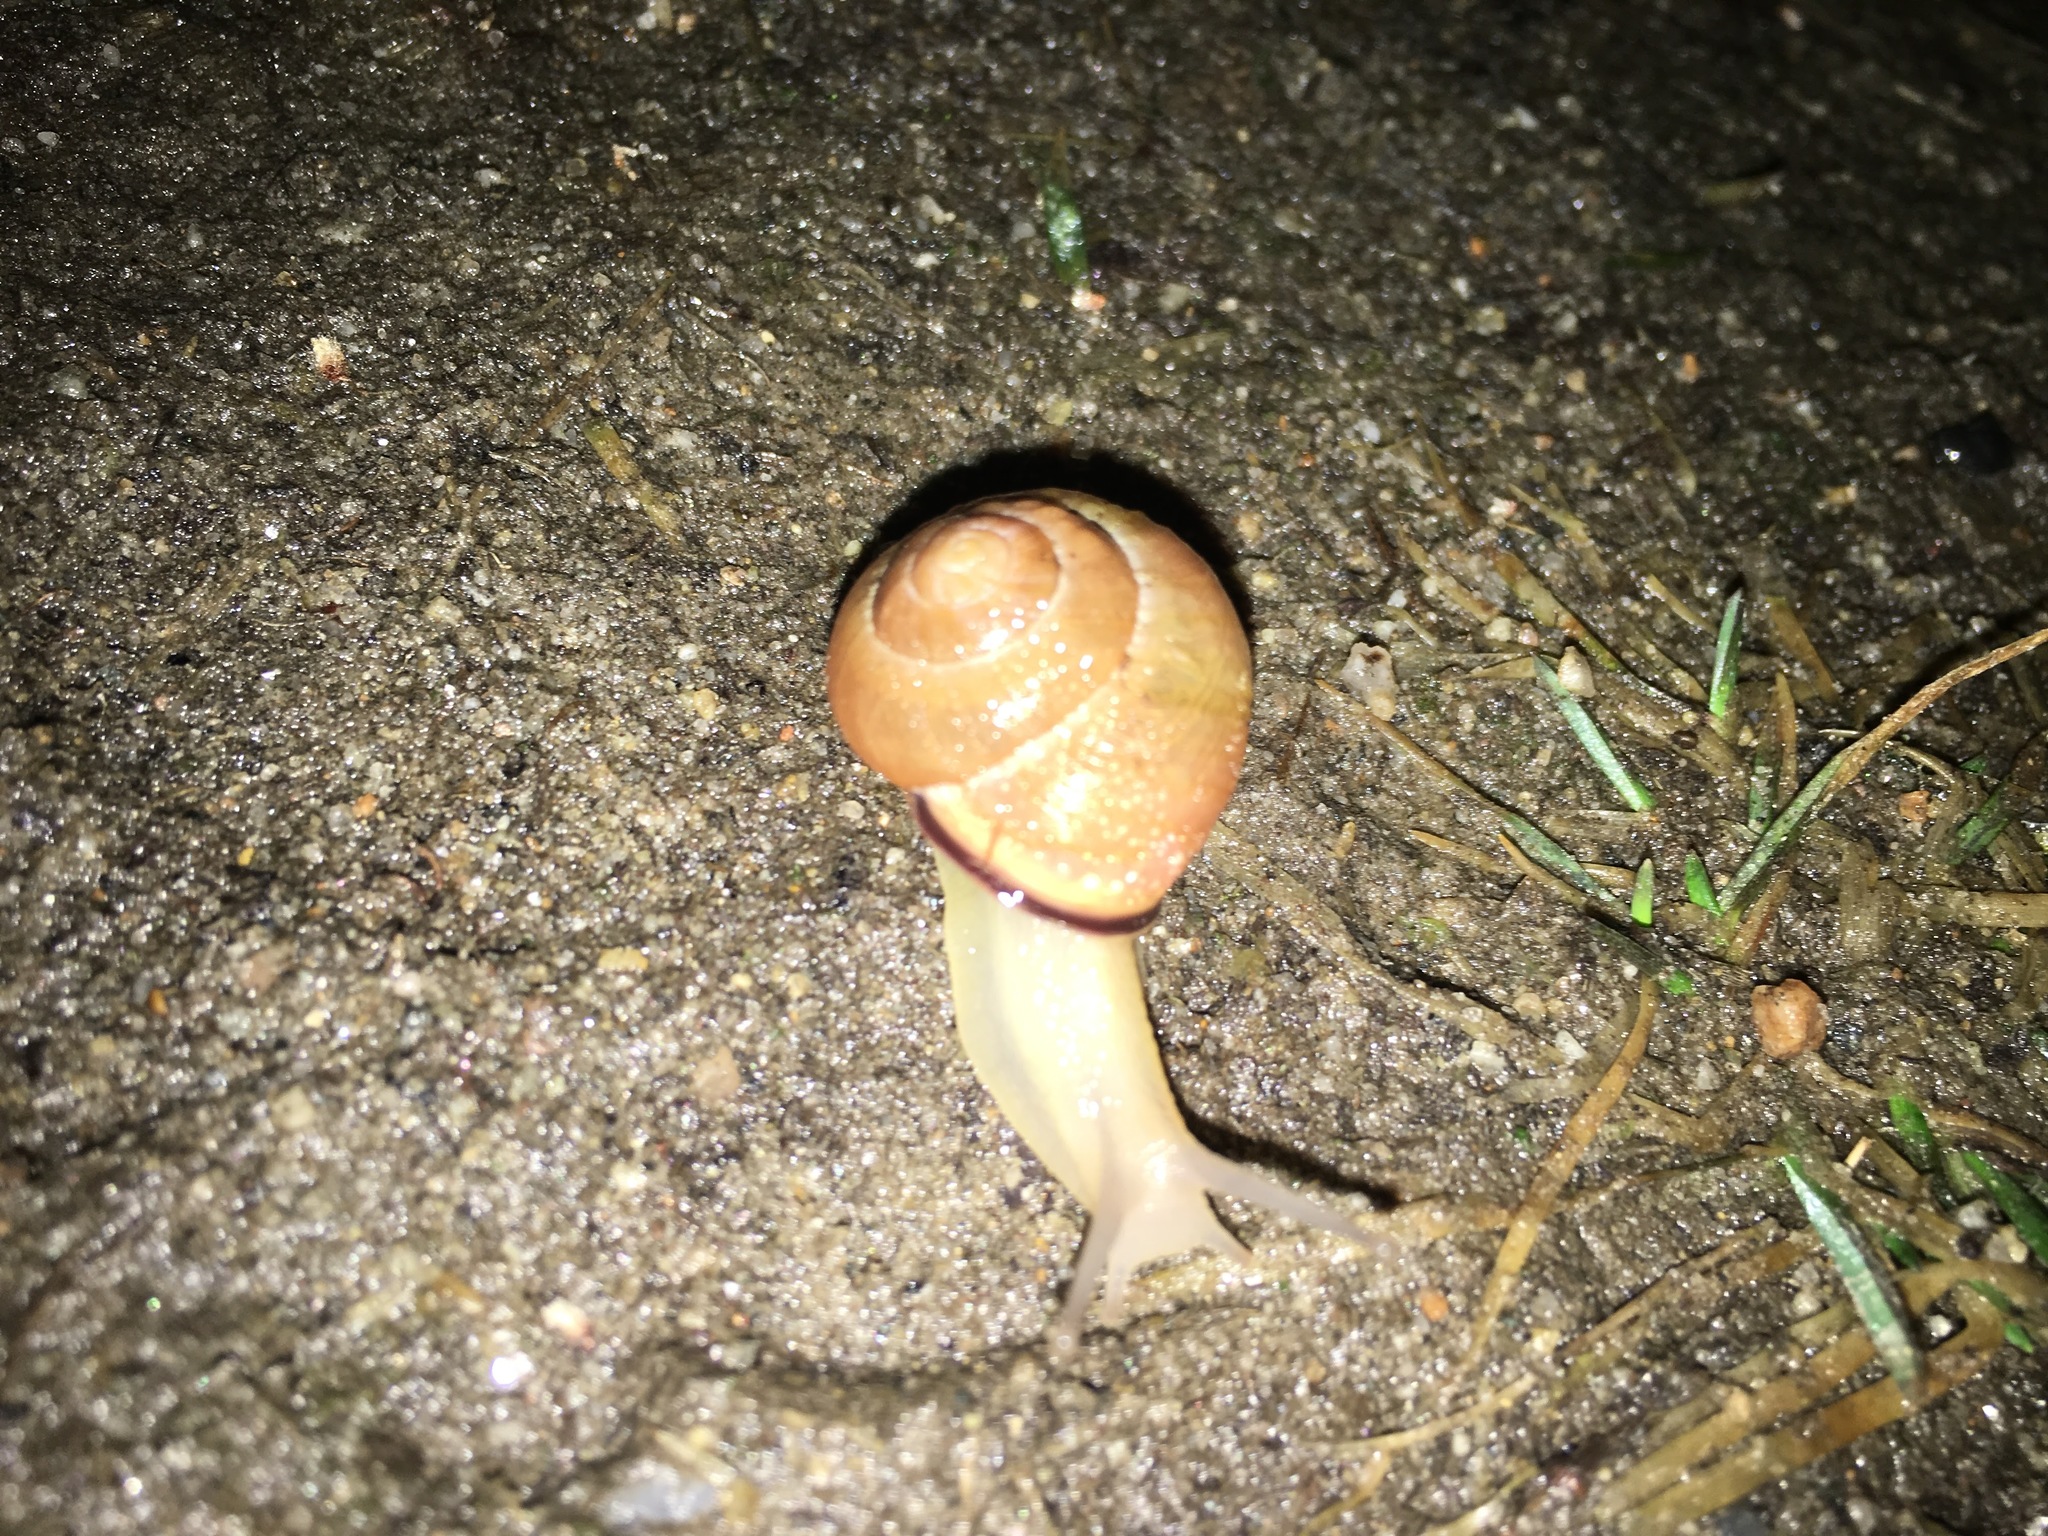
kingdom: Animalia
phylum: Mollusca
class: Gastropoda
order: Stylommatophora
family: Helicidae
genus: Cepaea
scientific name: Cepaea nemoralis
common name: Grovesnail
